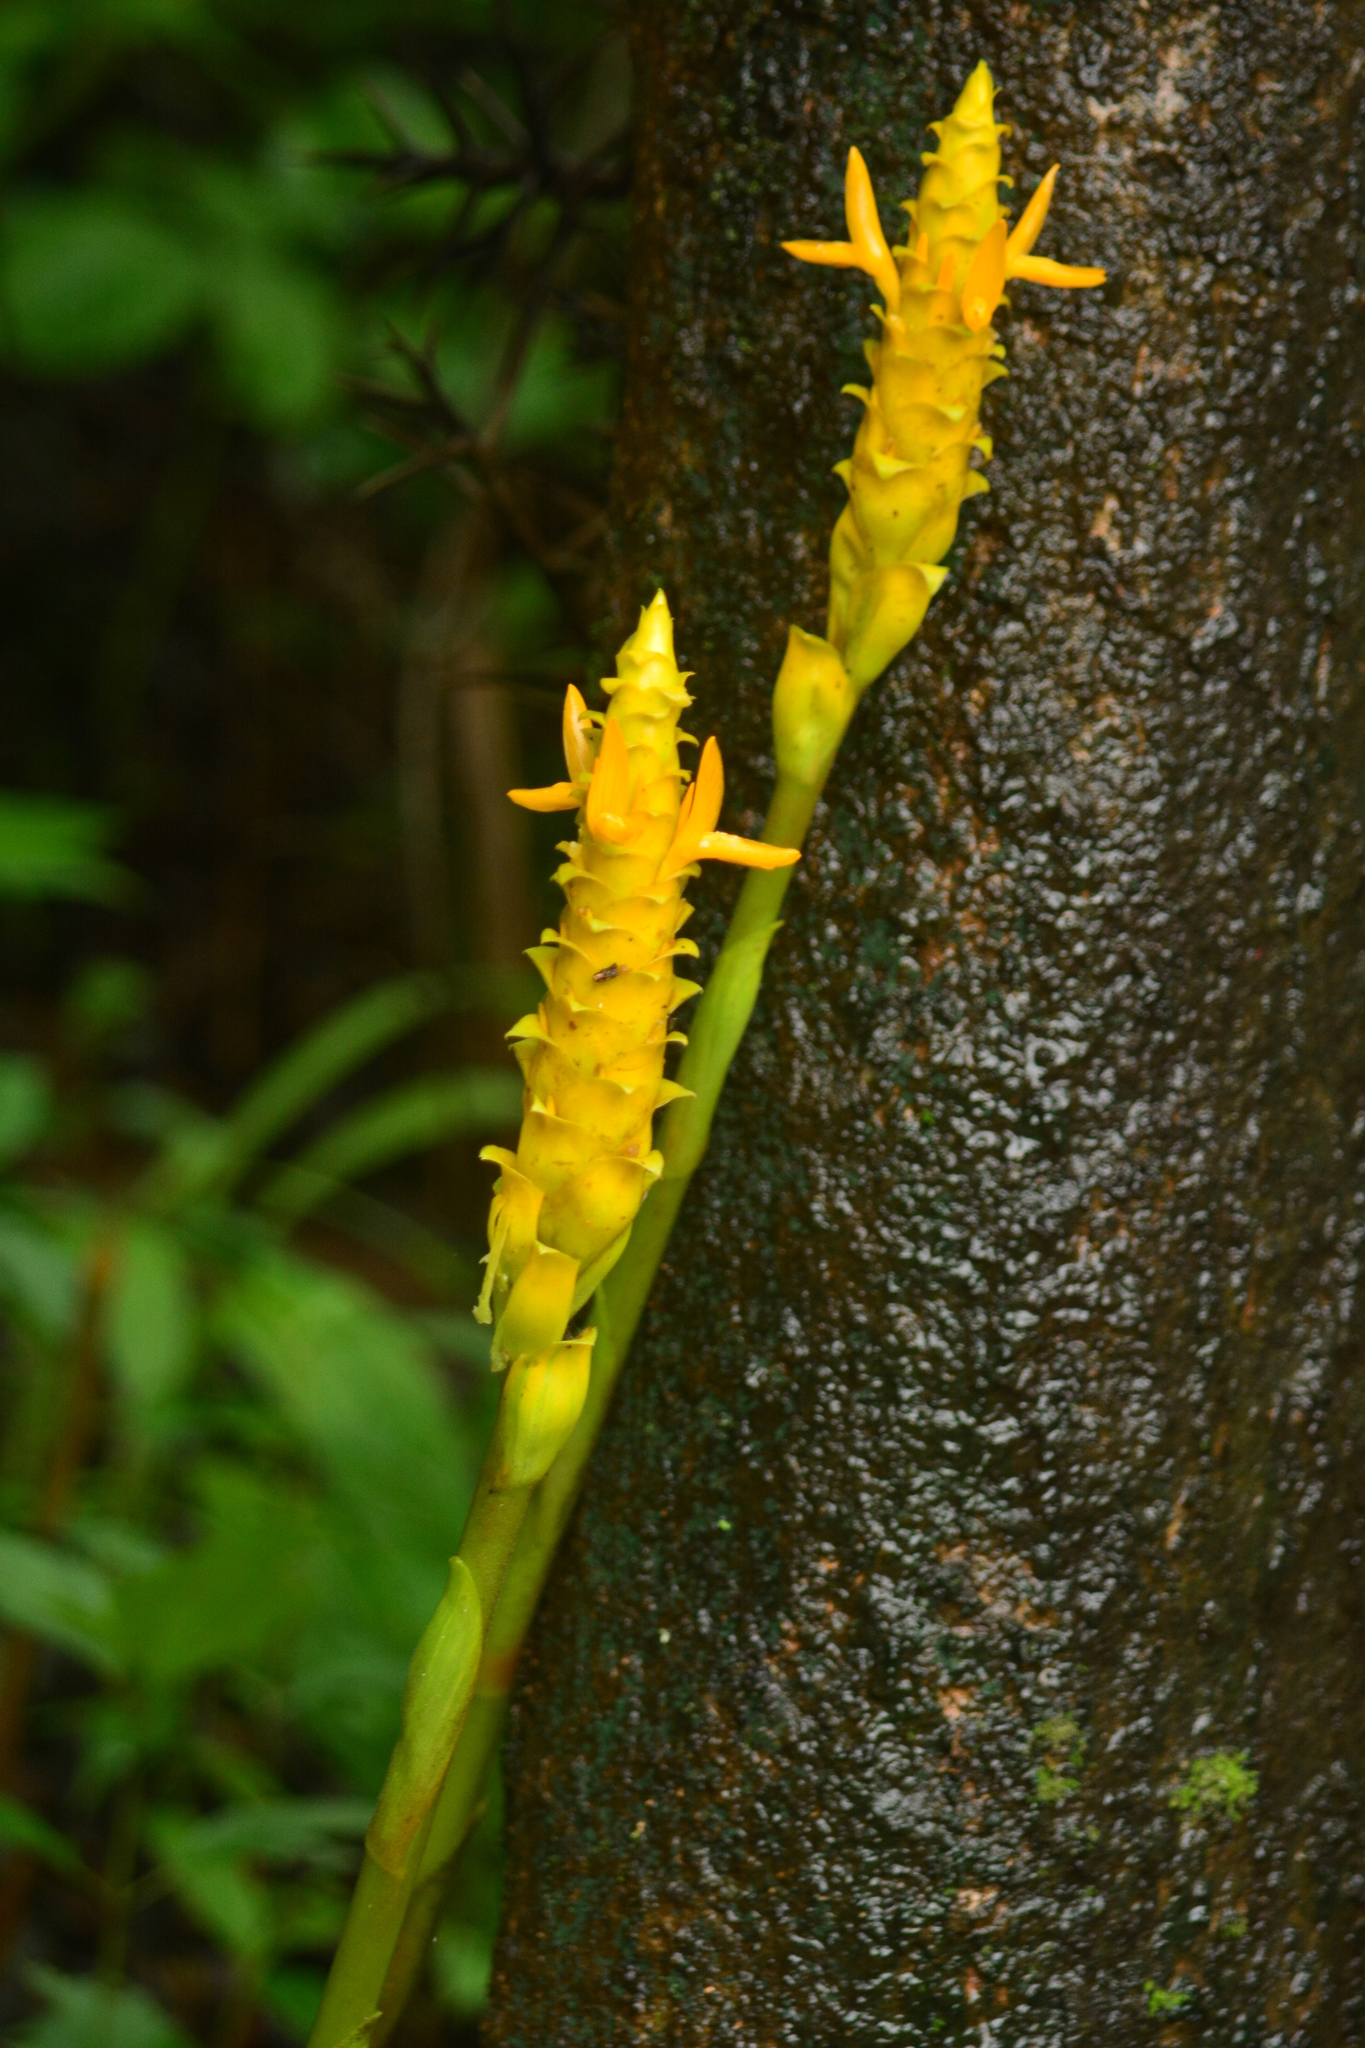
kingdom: Plantae
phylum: Tracheophyta
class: Liliopsida
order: Zingiberales
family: Zingiberaceae
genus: Zingiber
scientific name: Zingiber neesanum
